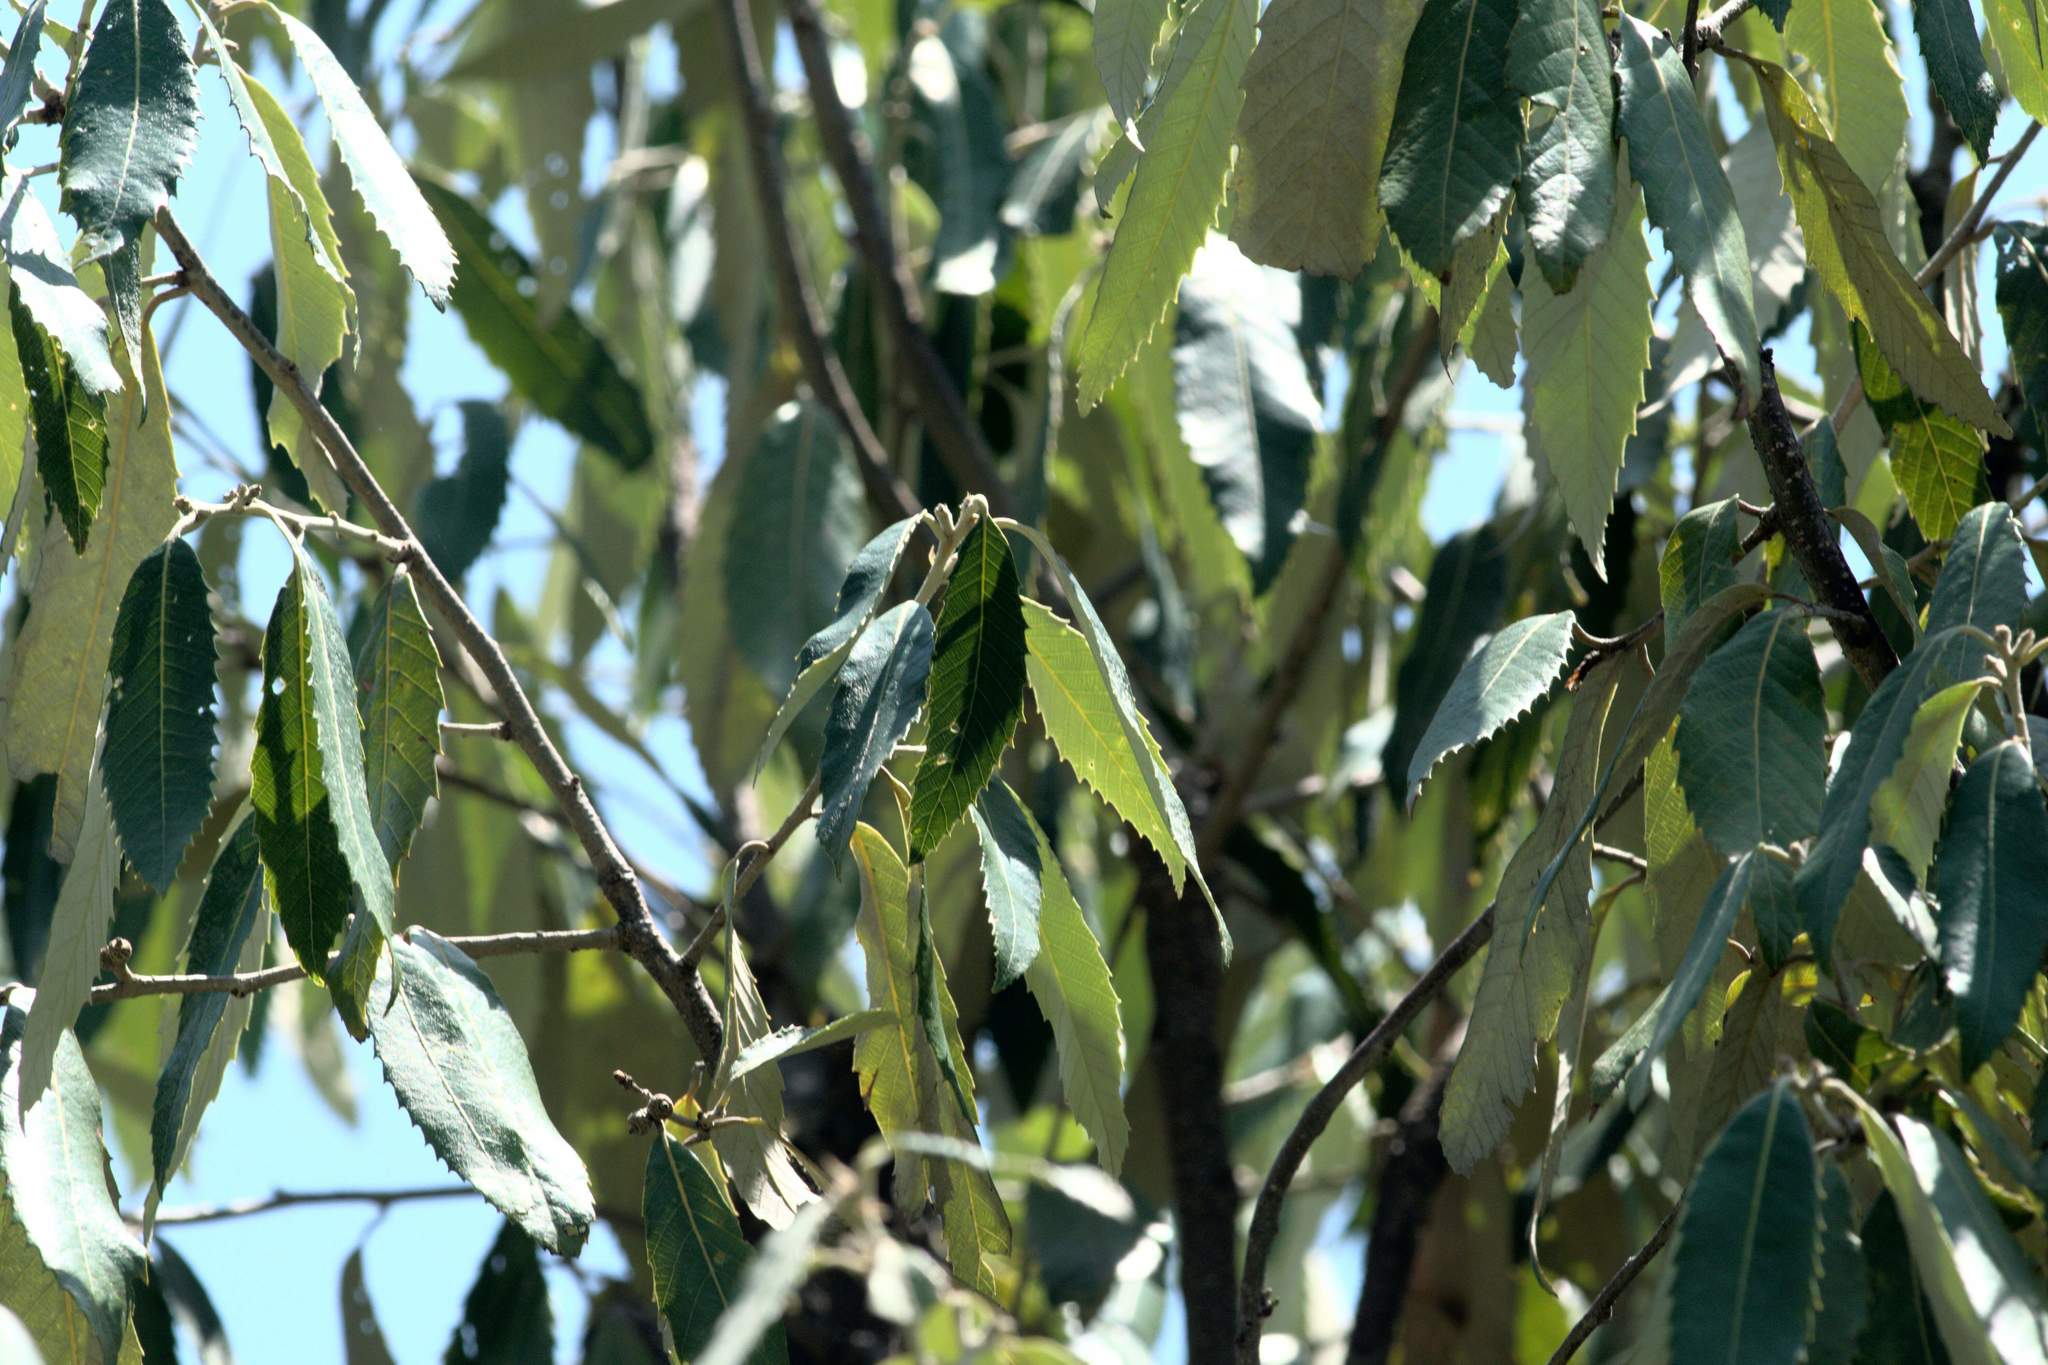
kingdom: Plantae
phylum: Tracheophyta
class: Magnoliopsida
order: Fagales
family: Fagaceae
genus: Quercus
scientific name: Quercus leucotrichophora
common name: Banj oak
